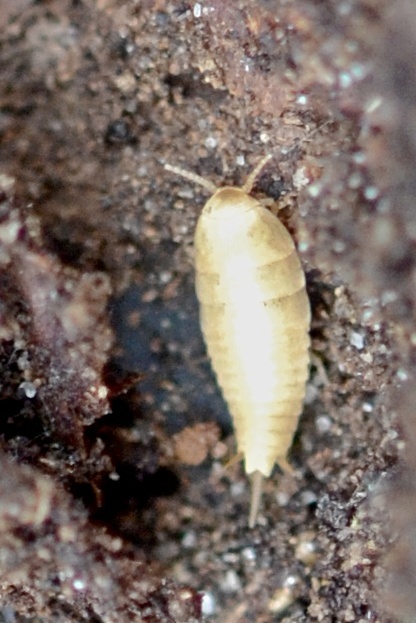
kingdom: Animalia
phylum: Arthropoda
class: Insecta
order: Zygentoma
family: Nicoletiidae
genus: Atelura
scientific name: Atelura formicaria
